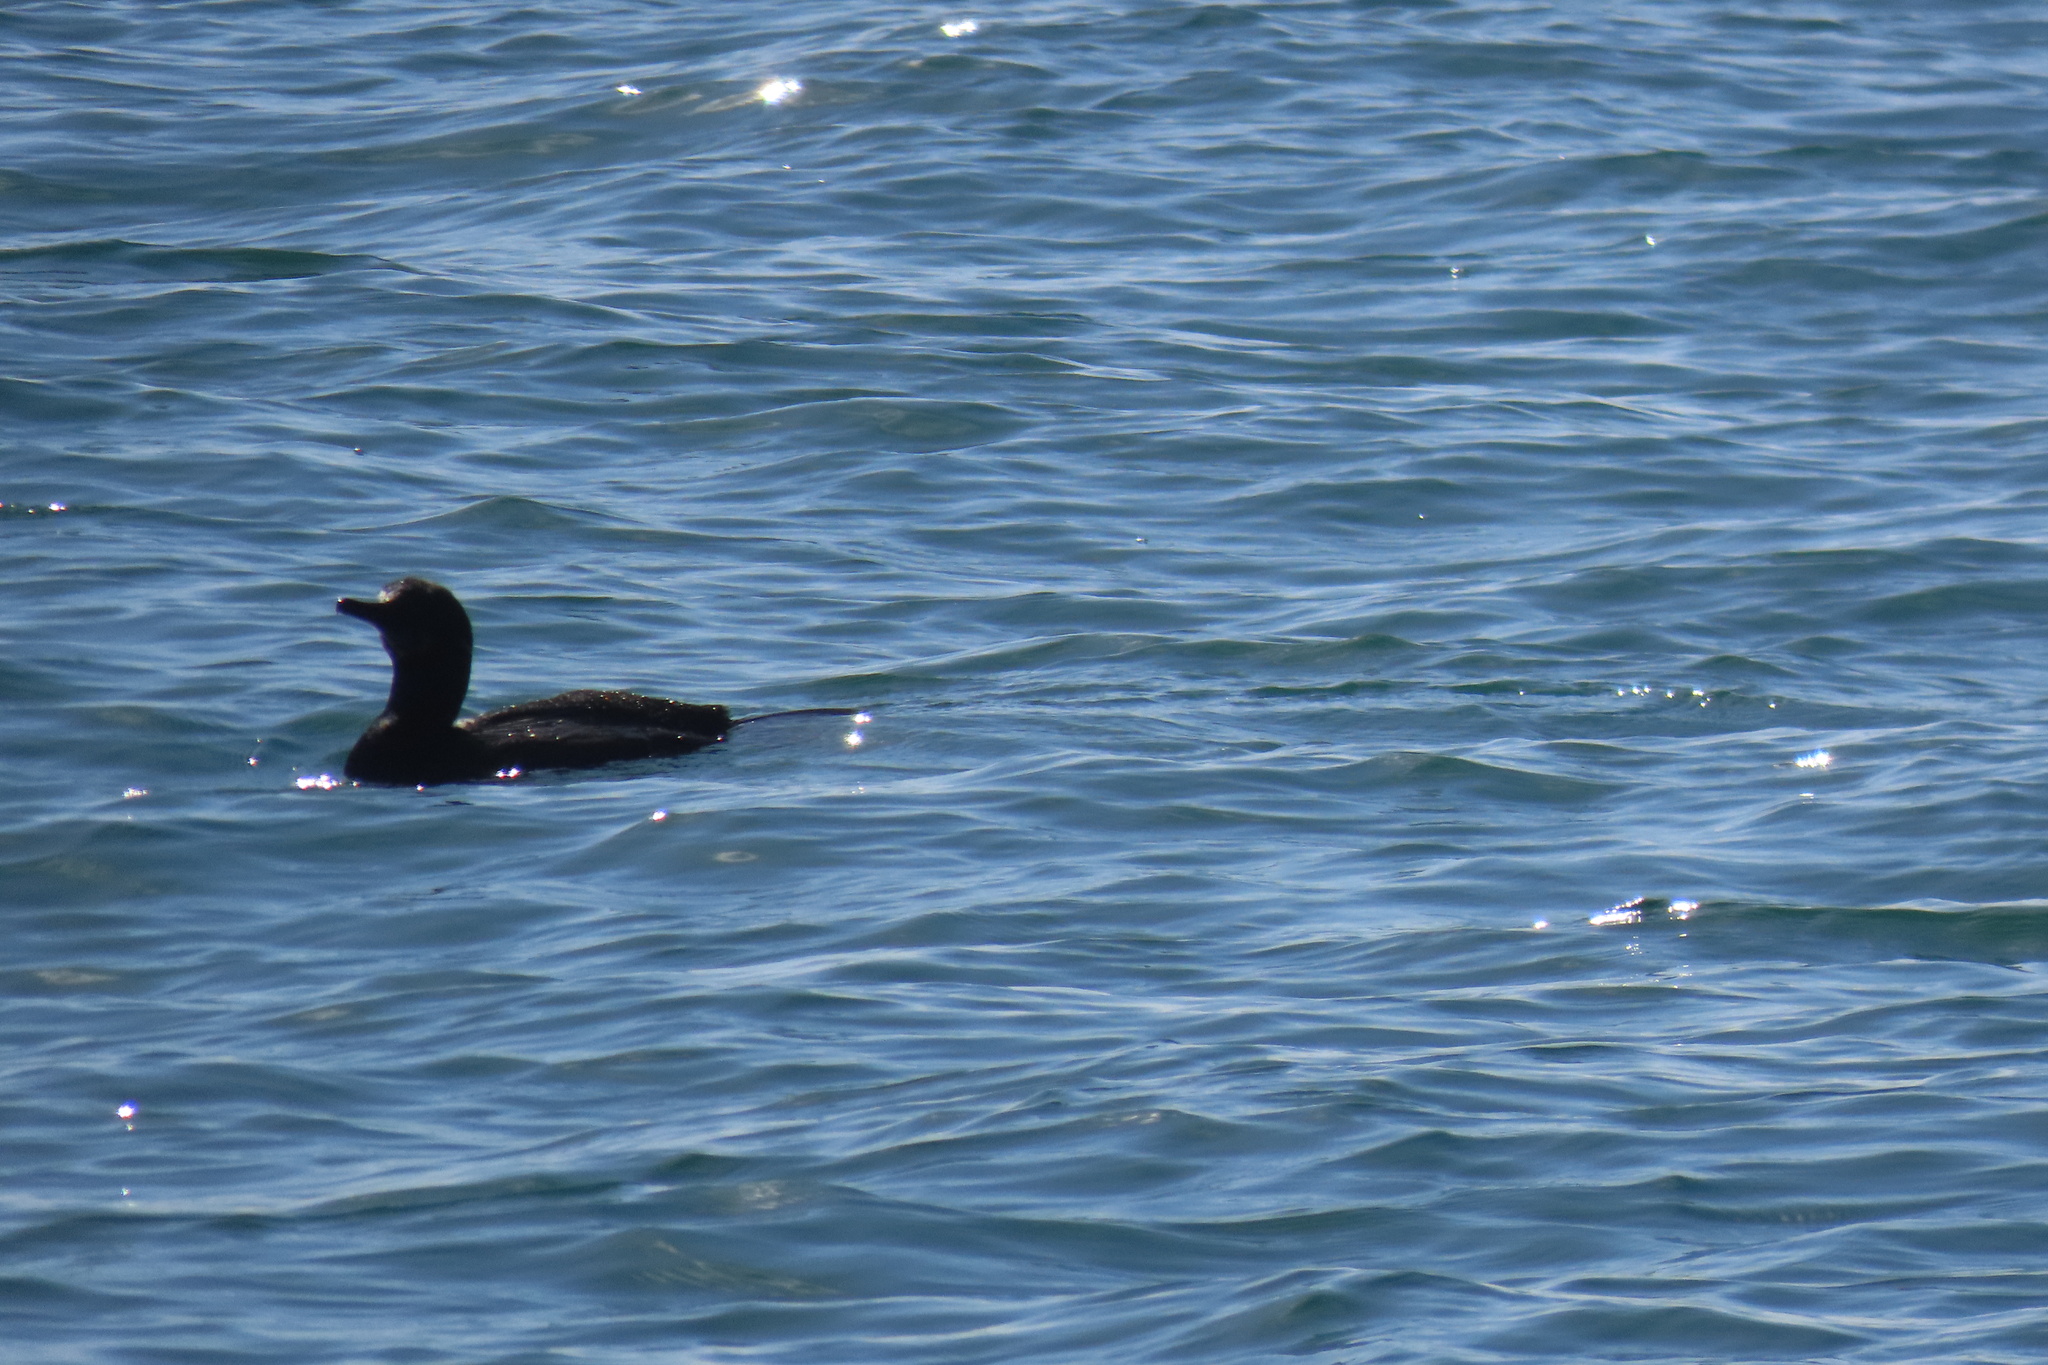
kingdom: Animalia
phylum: Chordata
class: Aves
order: Suliformes
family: Phalacrocoracidae
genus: Urile
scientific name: Urile penicillatus
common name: Brandt's cormorant
